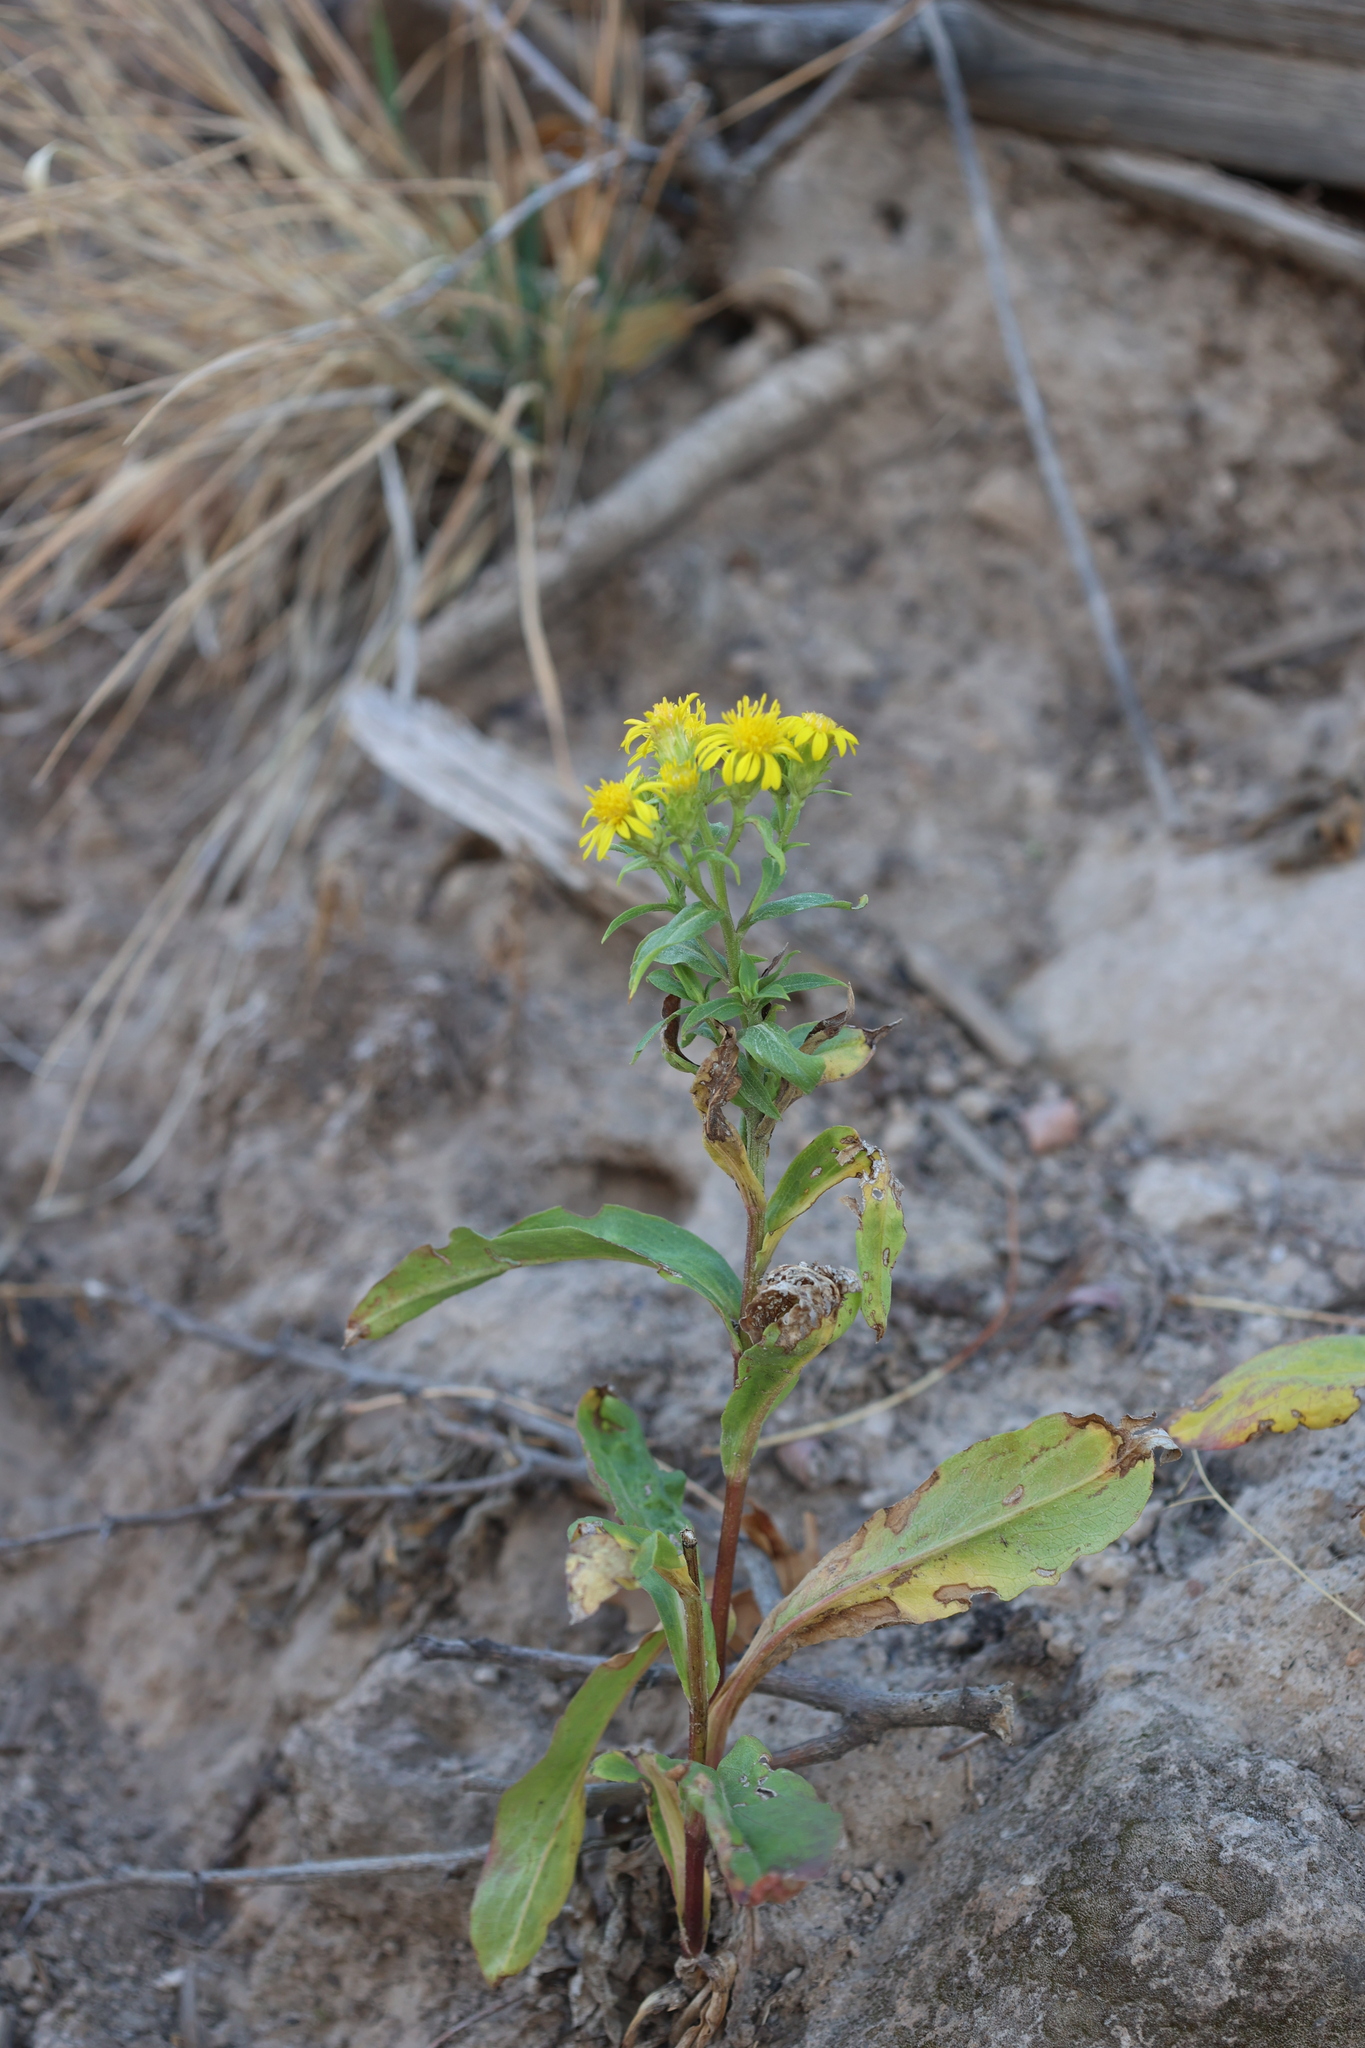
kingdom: Plantae
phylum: Tracheophyta
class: Magnoliopsida
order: Asterales
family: Asteraceae
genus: Oreochrysum
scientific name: Oreochrysum parryi
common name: Parry's goldenweed
